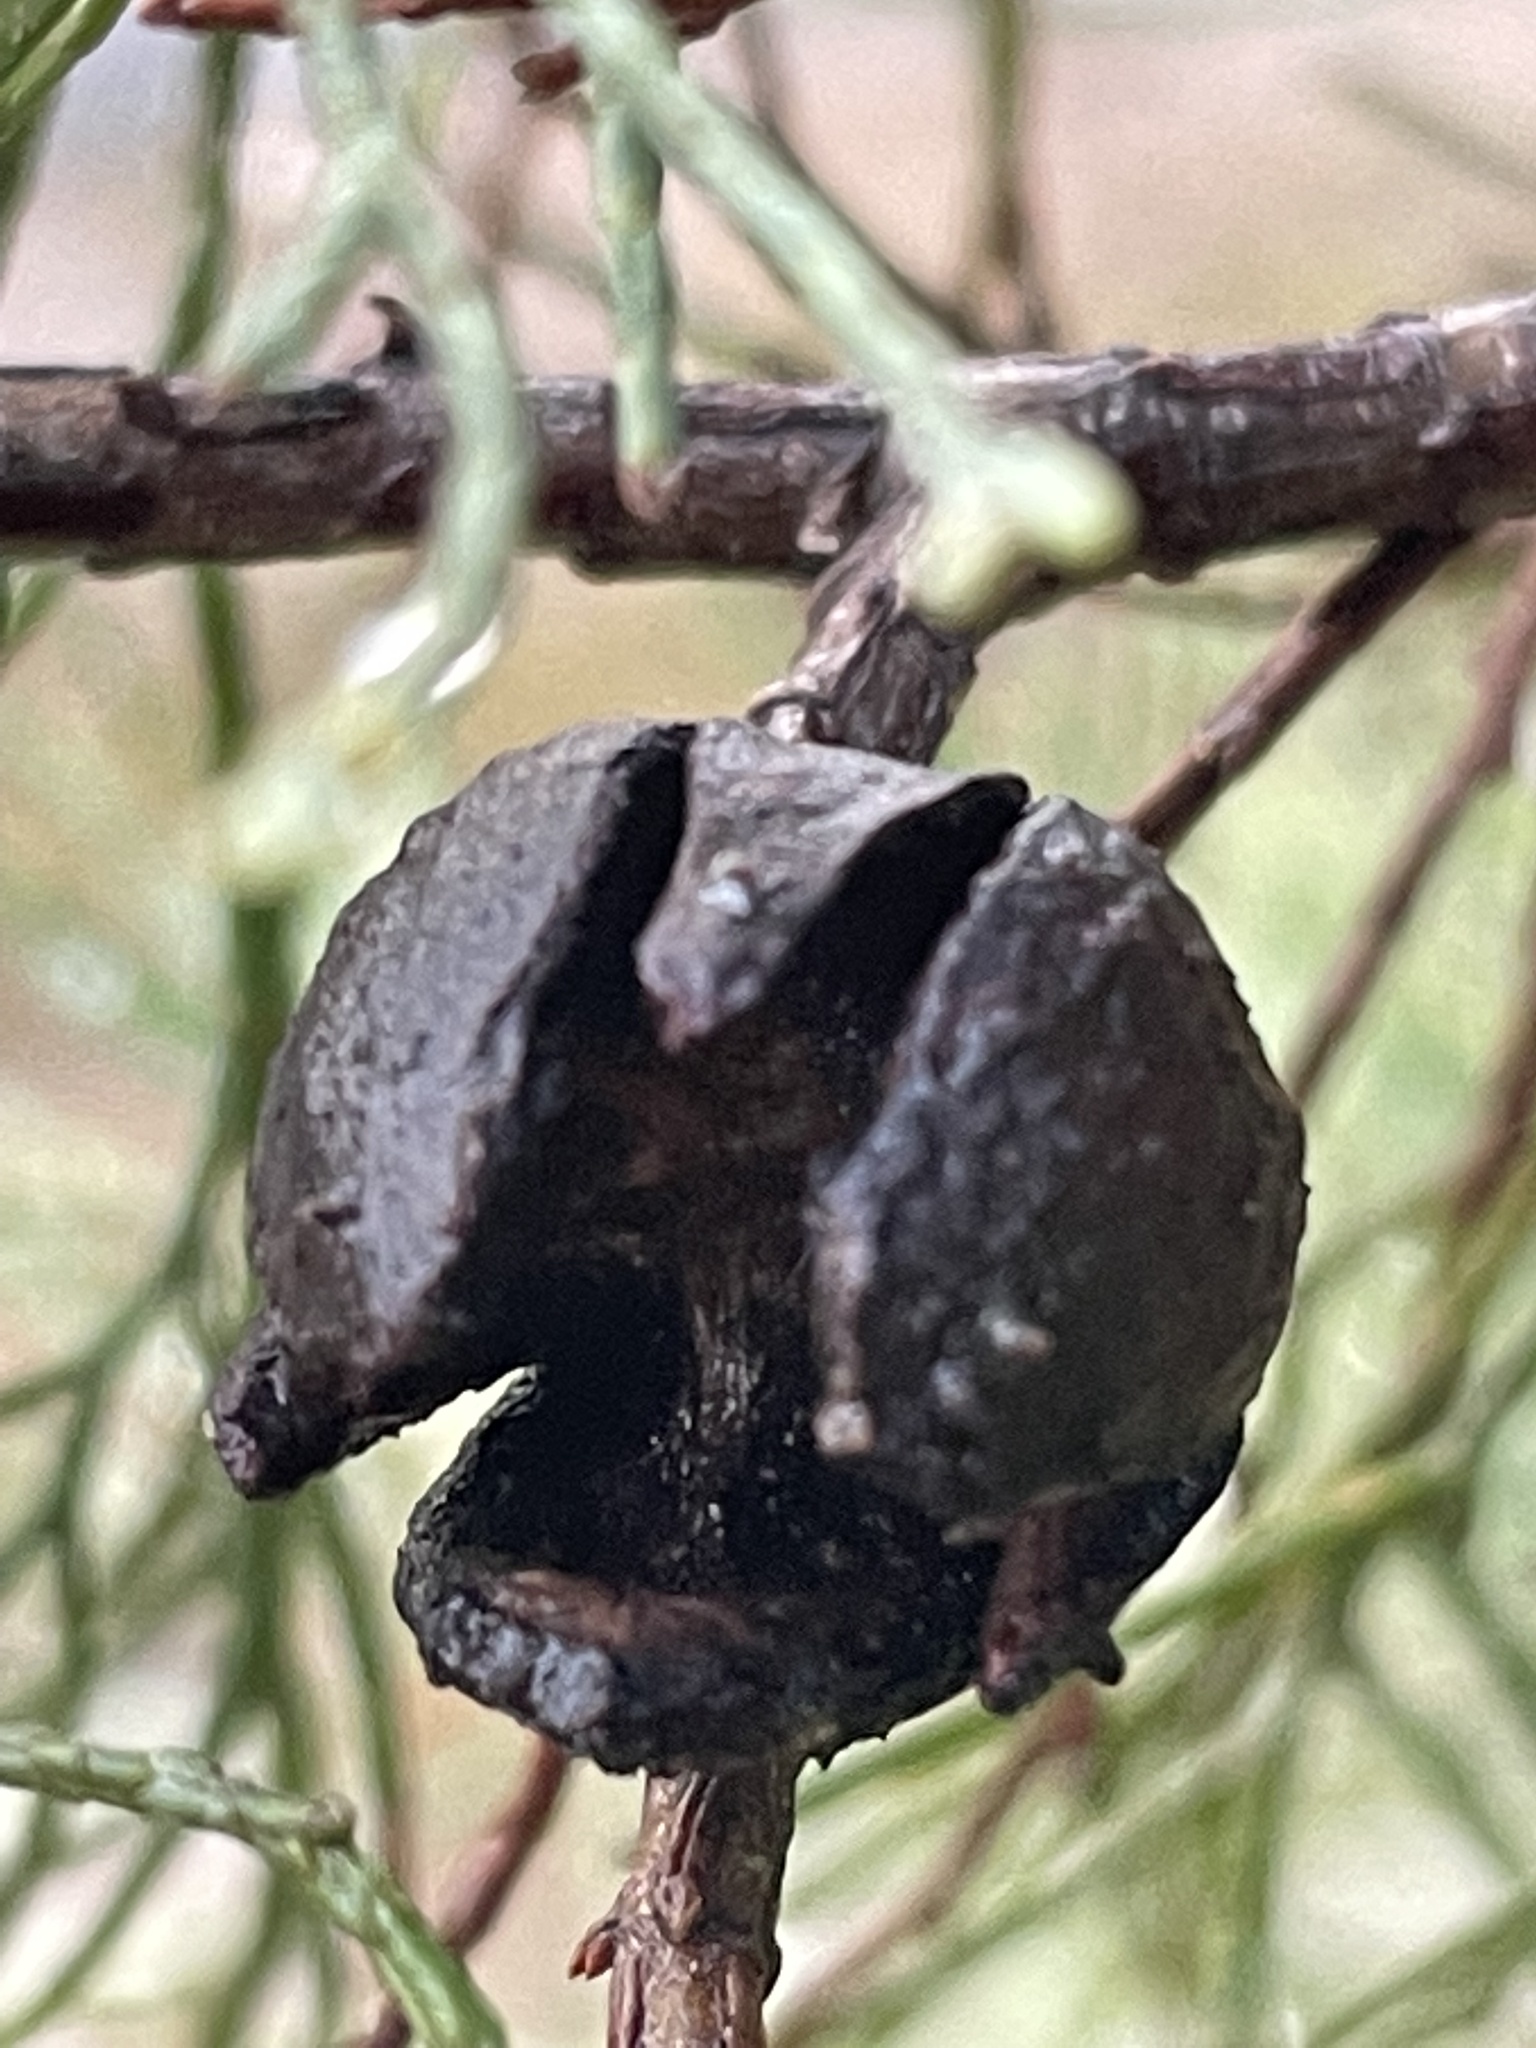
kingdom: Plantae
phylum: Tracheophyta
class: Pinopsida
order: Pinales
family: Cupressaceae
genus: Callitris
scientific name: Callitris columellaris
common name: White cypress-pine
